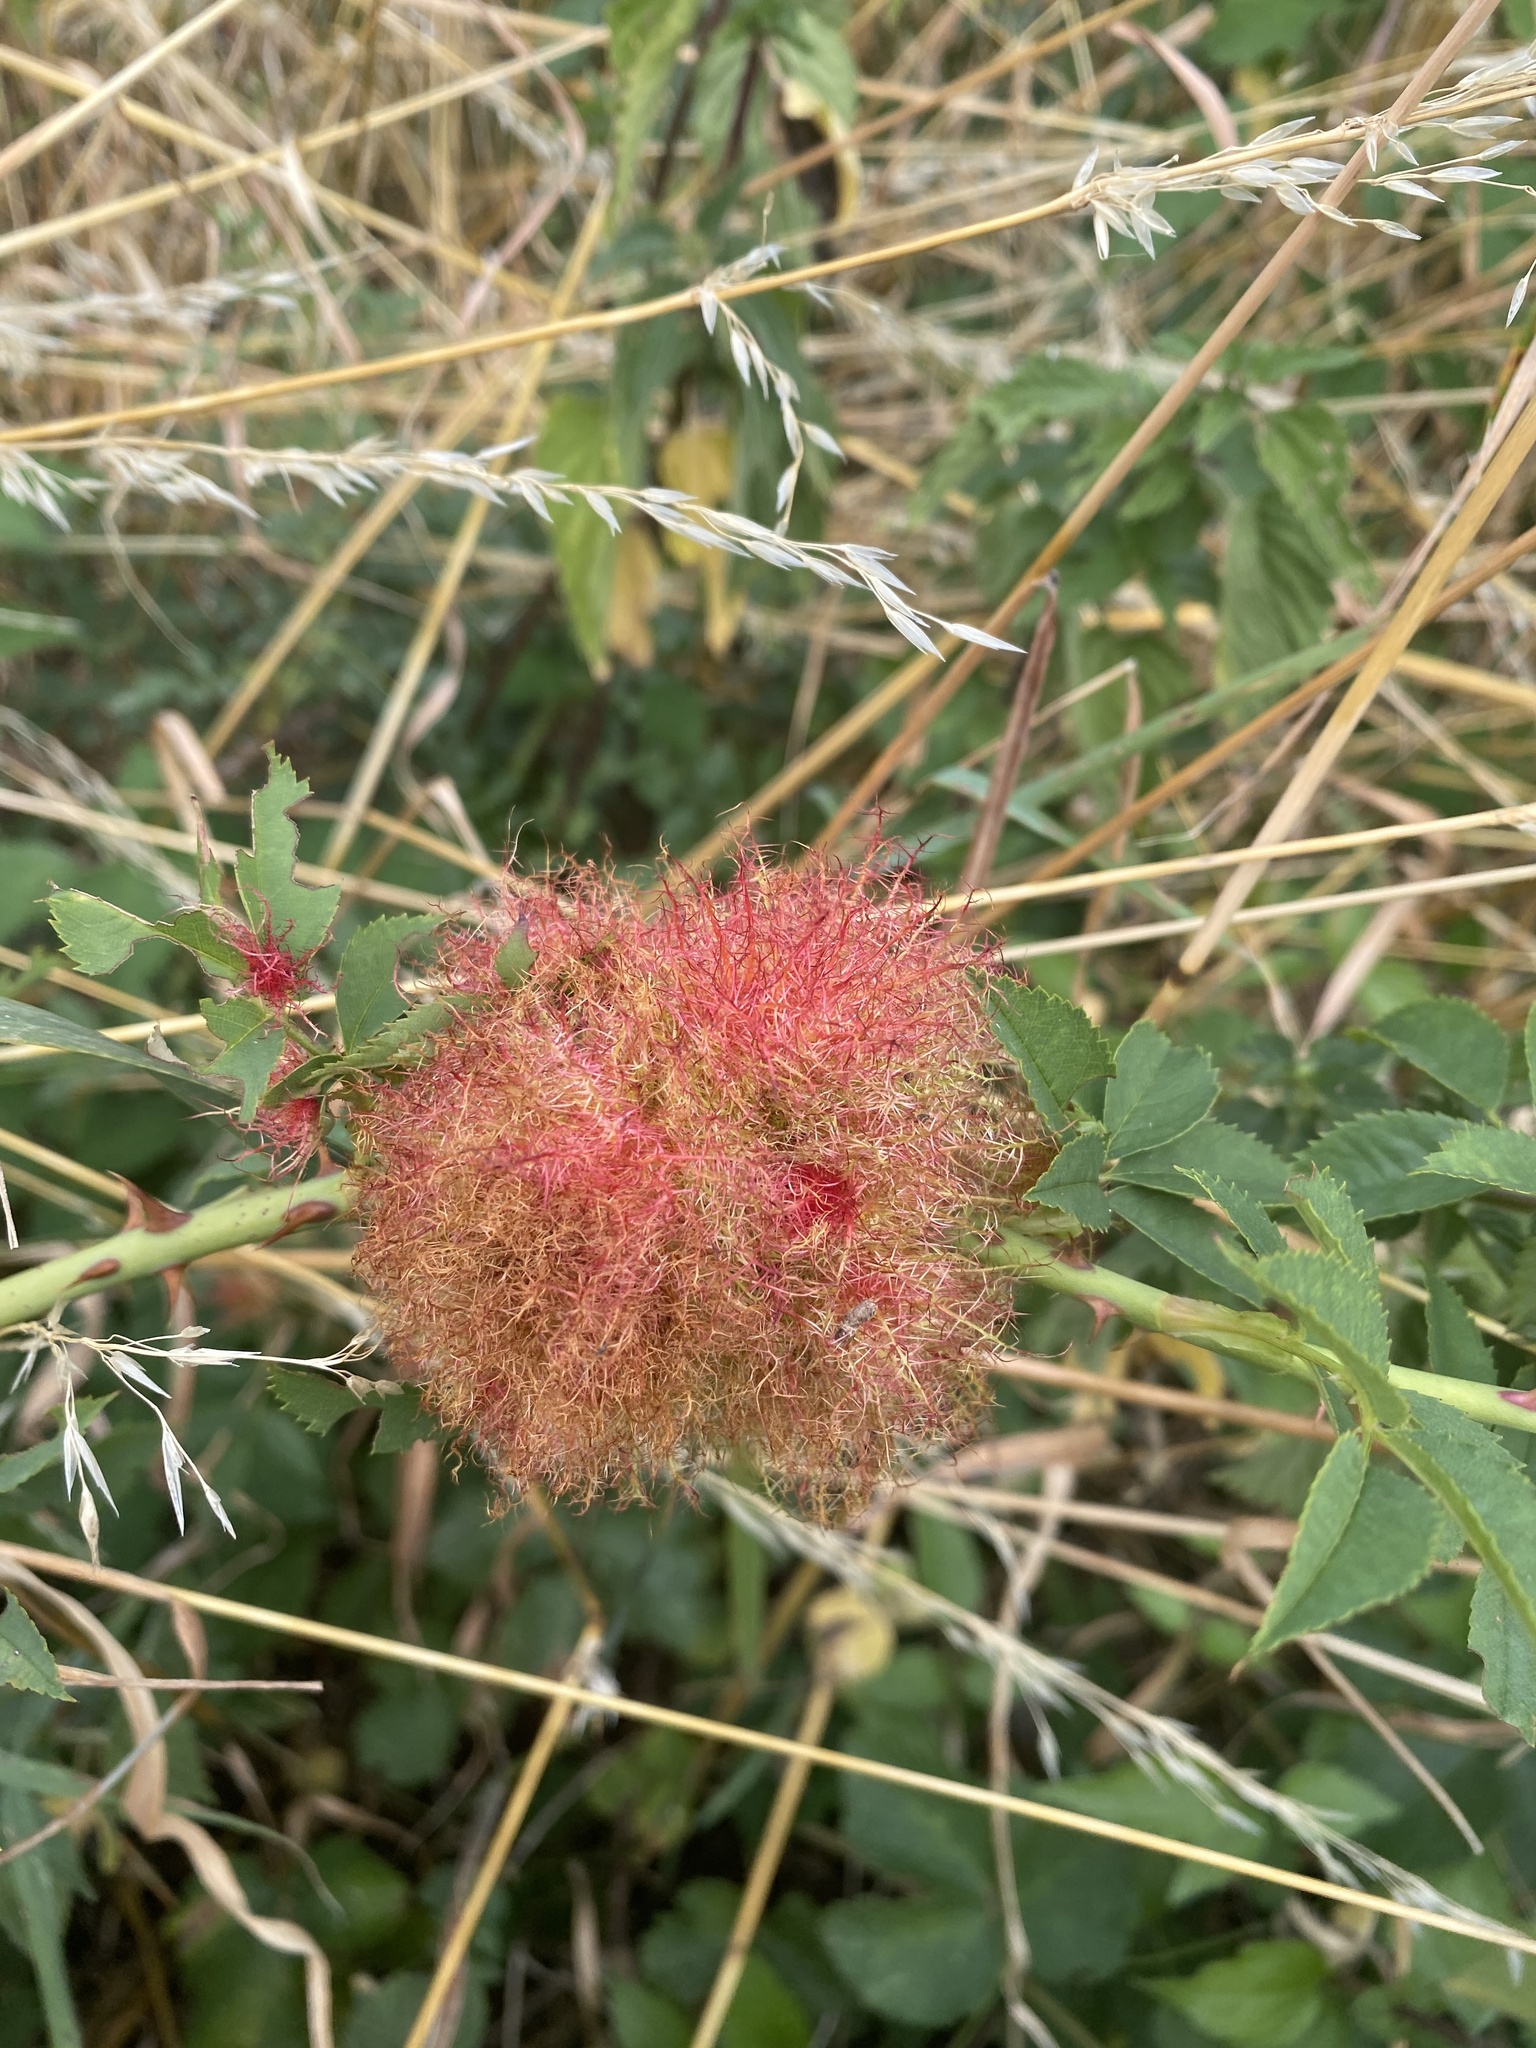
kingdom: Animalia
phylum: Arthropoda
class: Insecta
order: Hymenoptera
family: Cynipidae
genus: Diplolepis
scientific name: Diplolepis rosae
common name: Bedeguar gall
